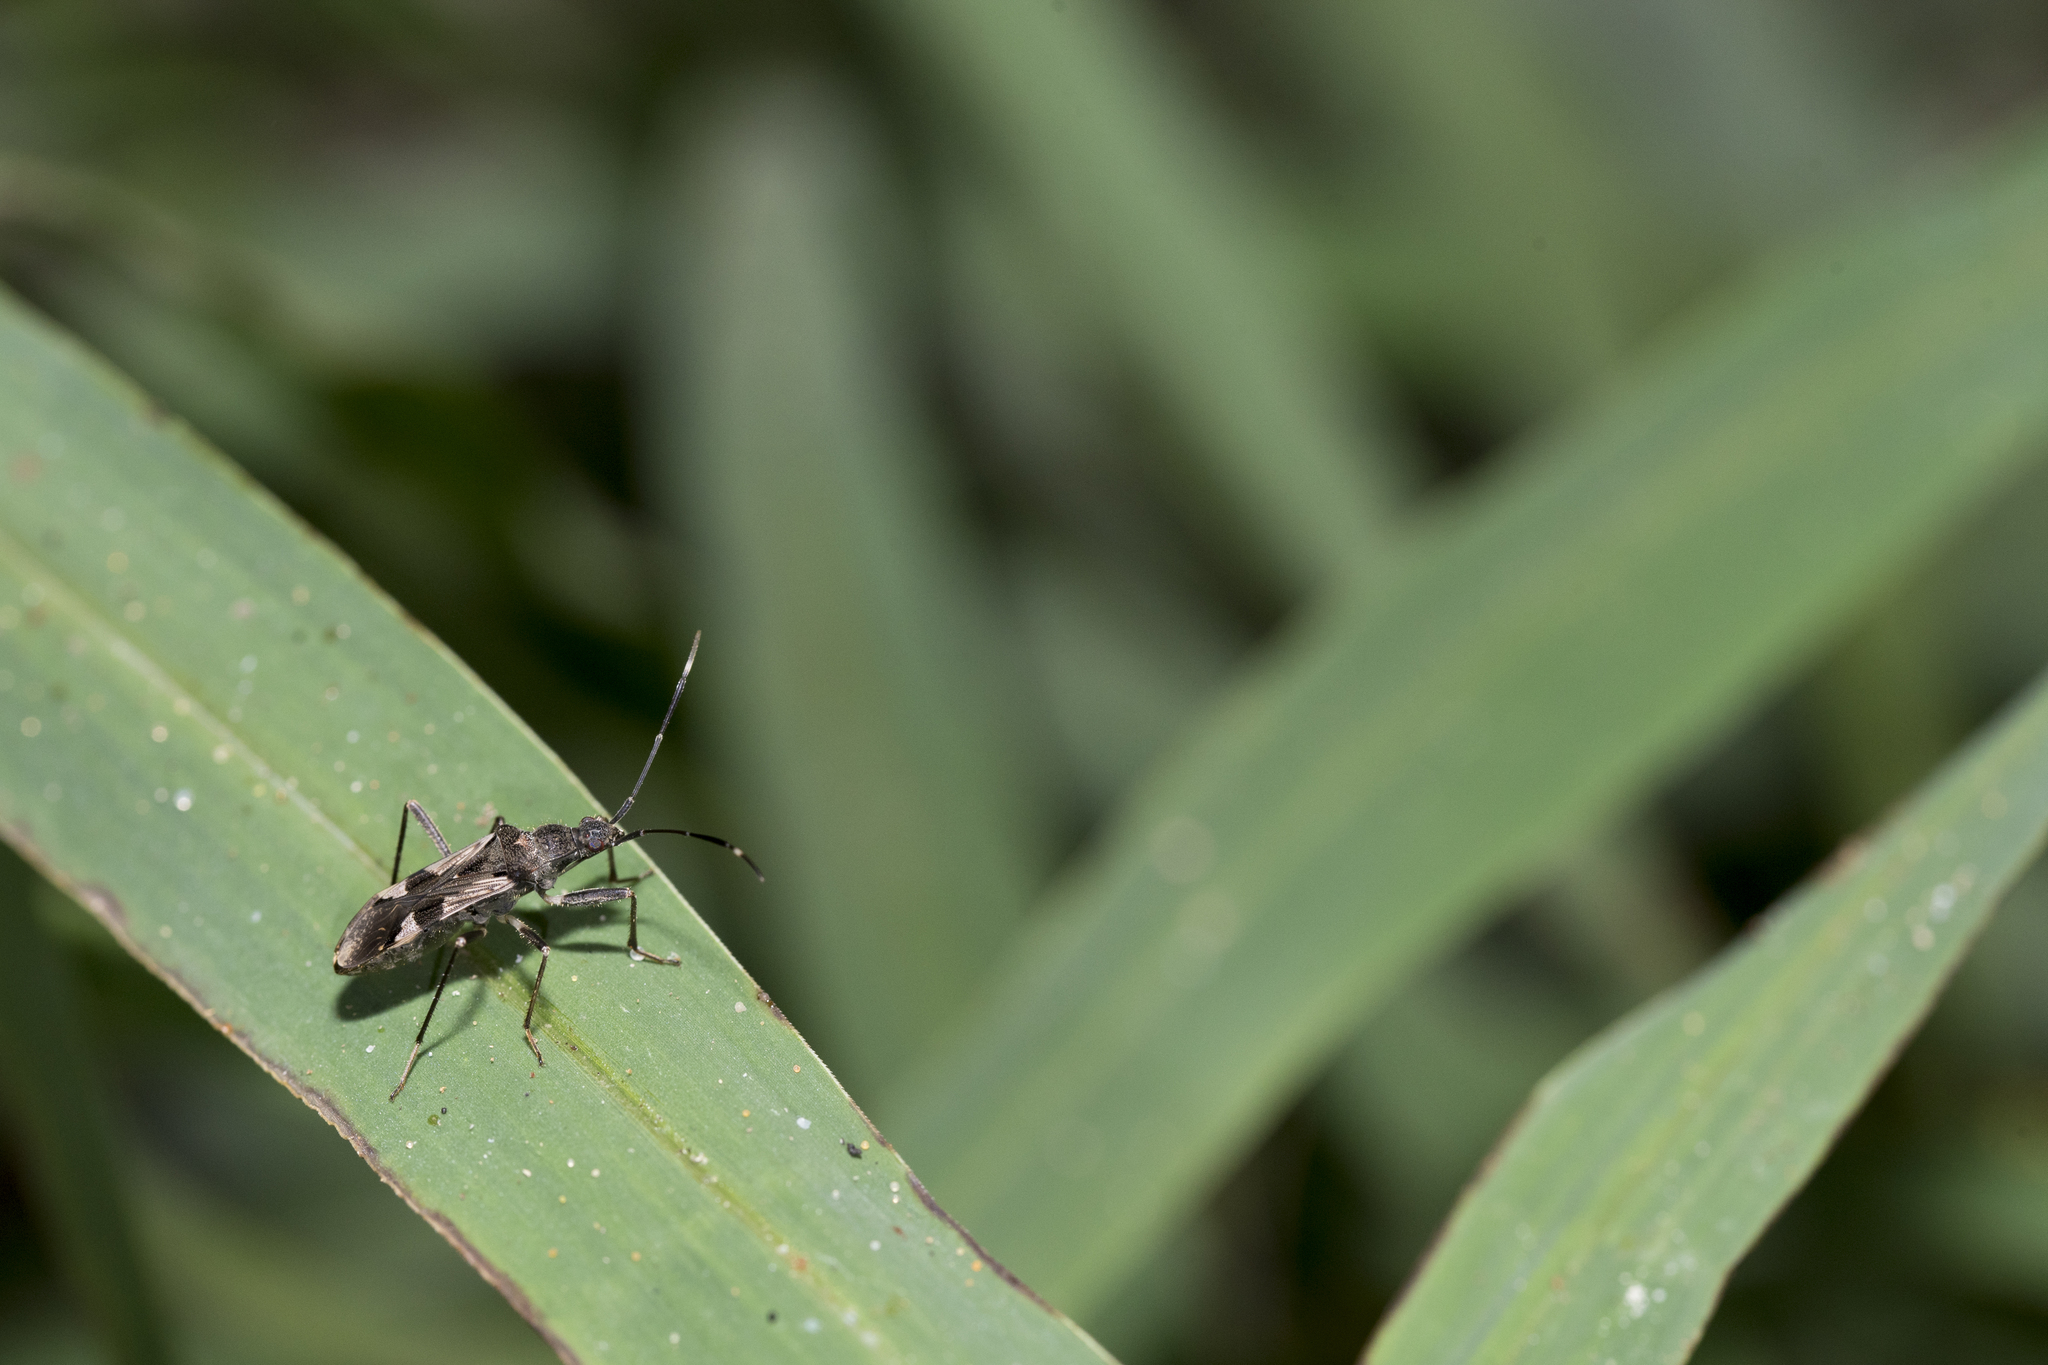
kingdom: Animalia
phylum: Arthropoda
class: Insecta
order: Hemiptera
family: Rhyparochromidae
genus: Metochus
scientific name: Metochus uniguttatus
